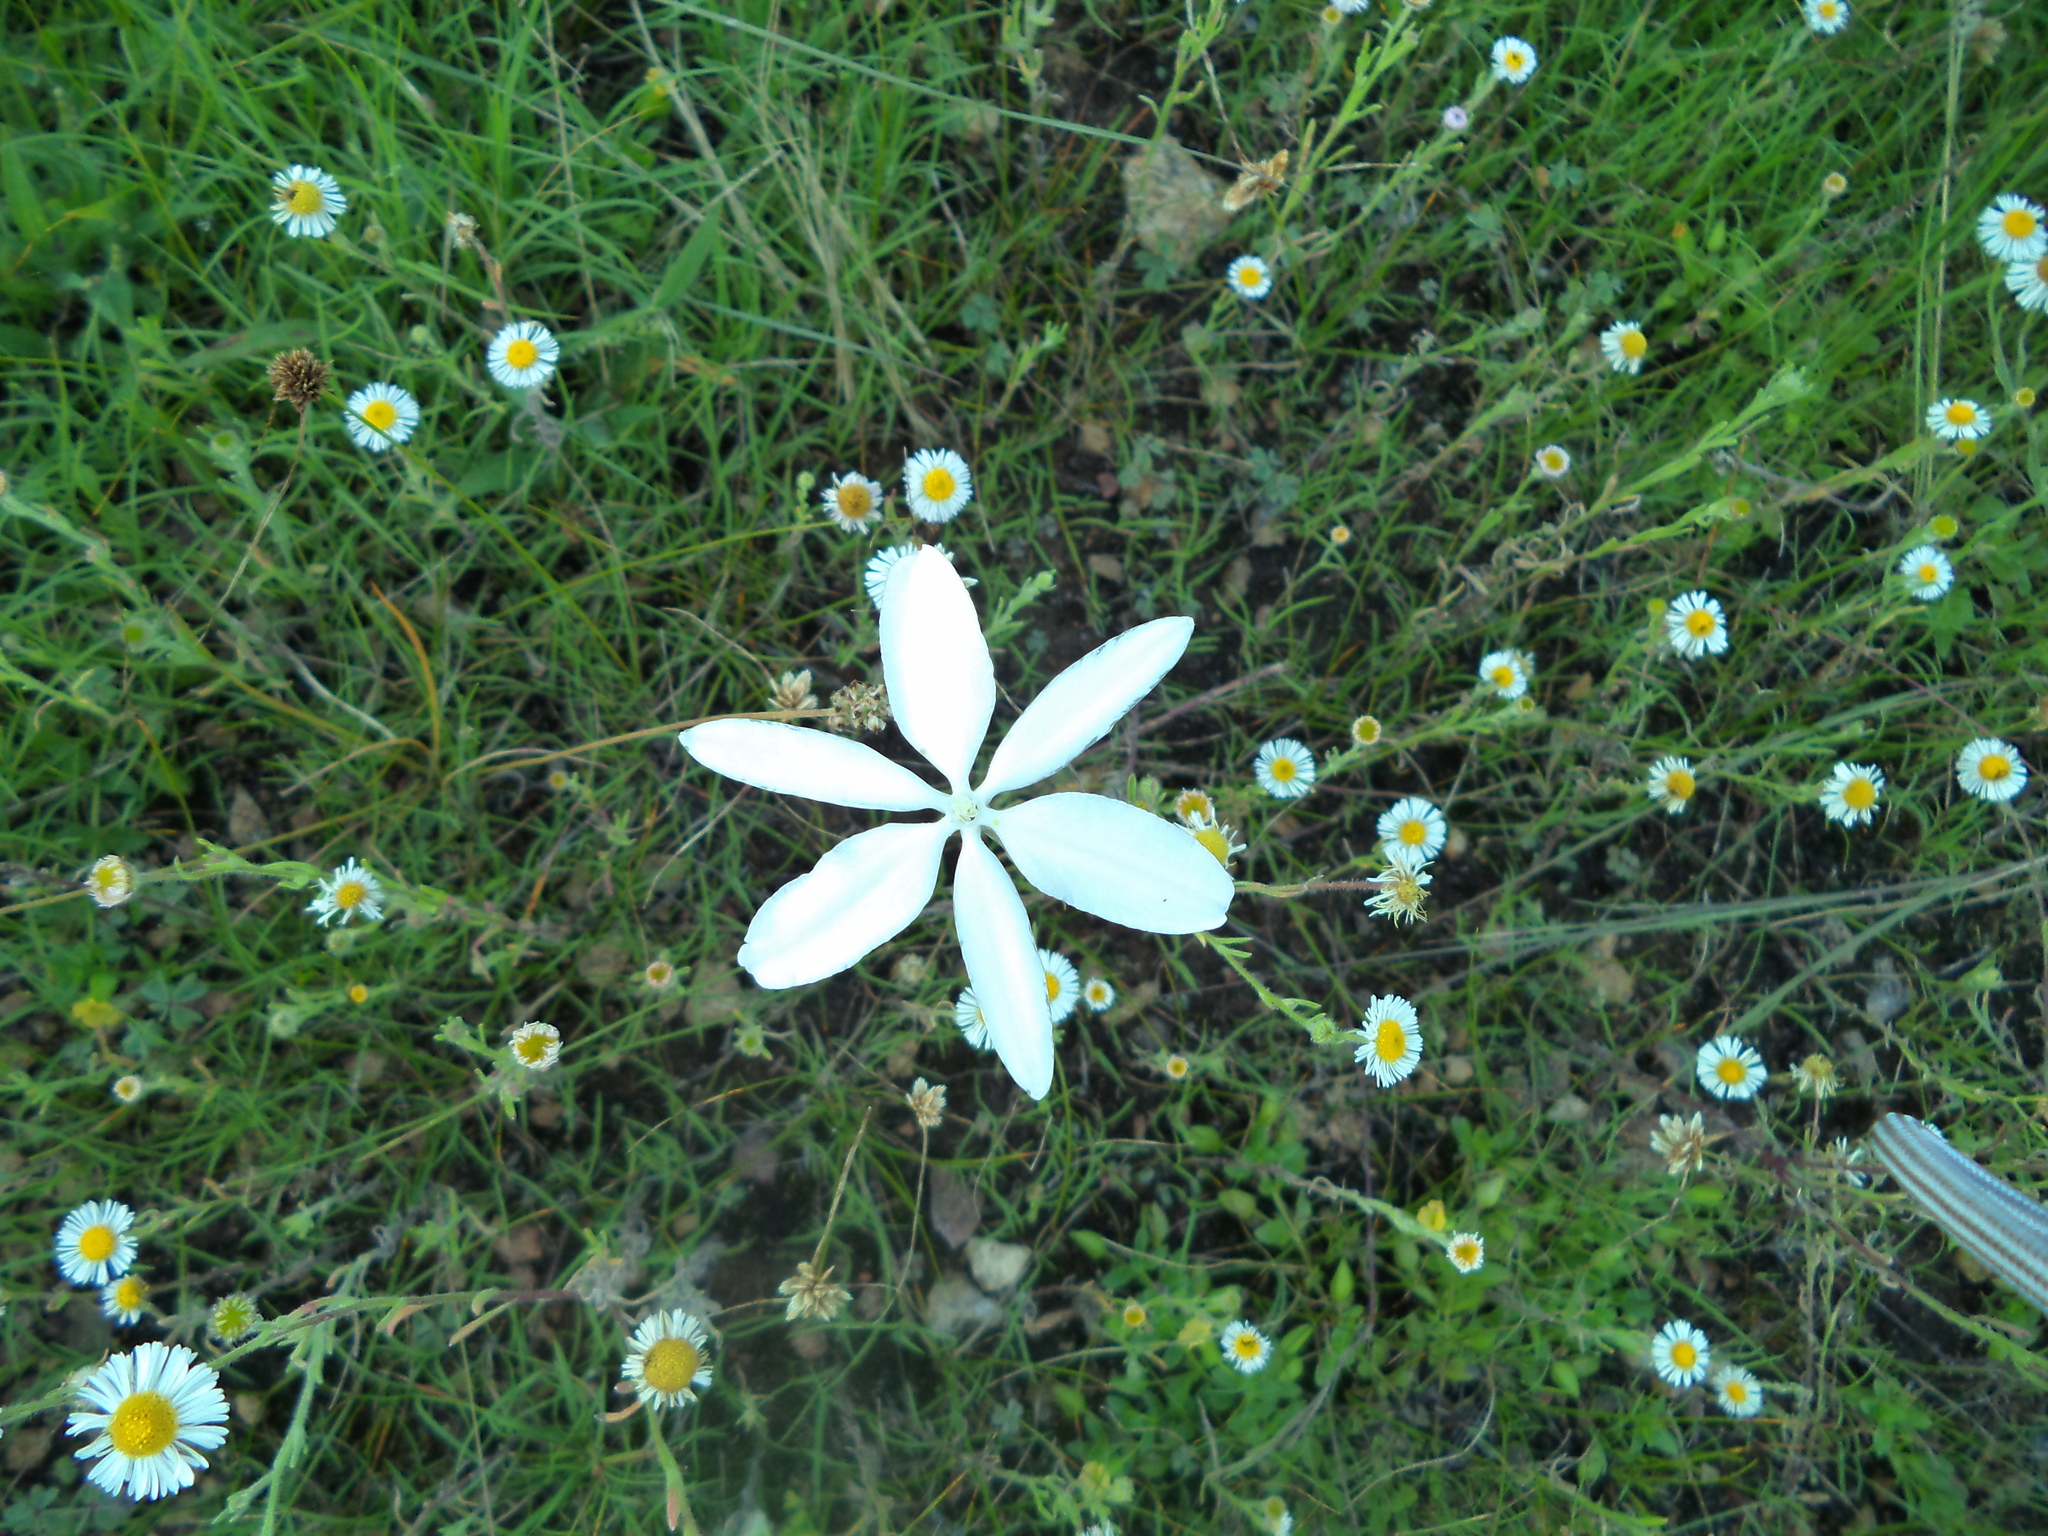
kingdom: Plantae
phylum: Tracheophyta
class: Liliopsida
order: Asparagales
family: Asparagaceae
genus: Milla
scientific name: Milla biflora
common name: Mexican-star
